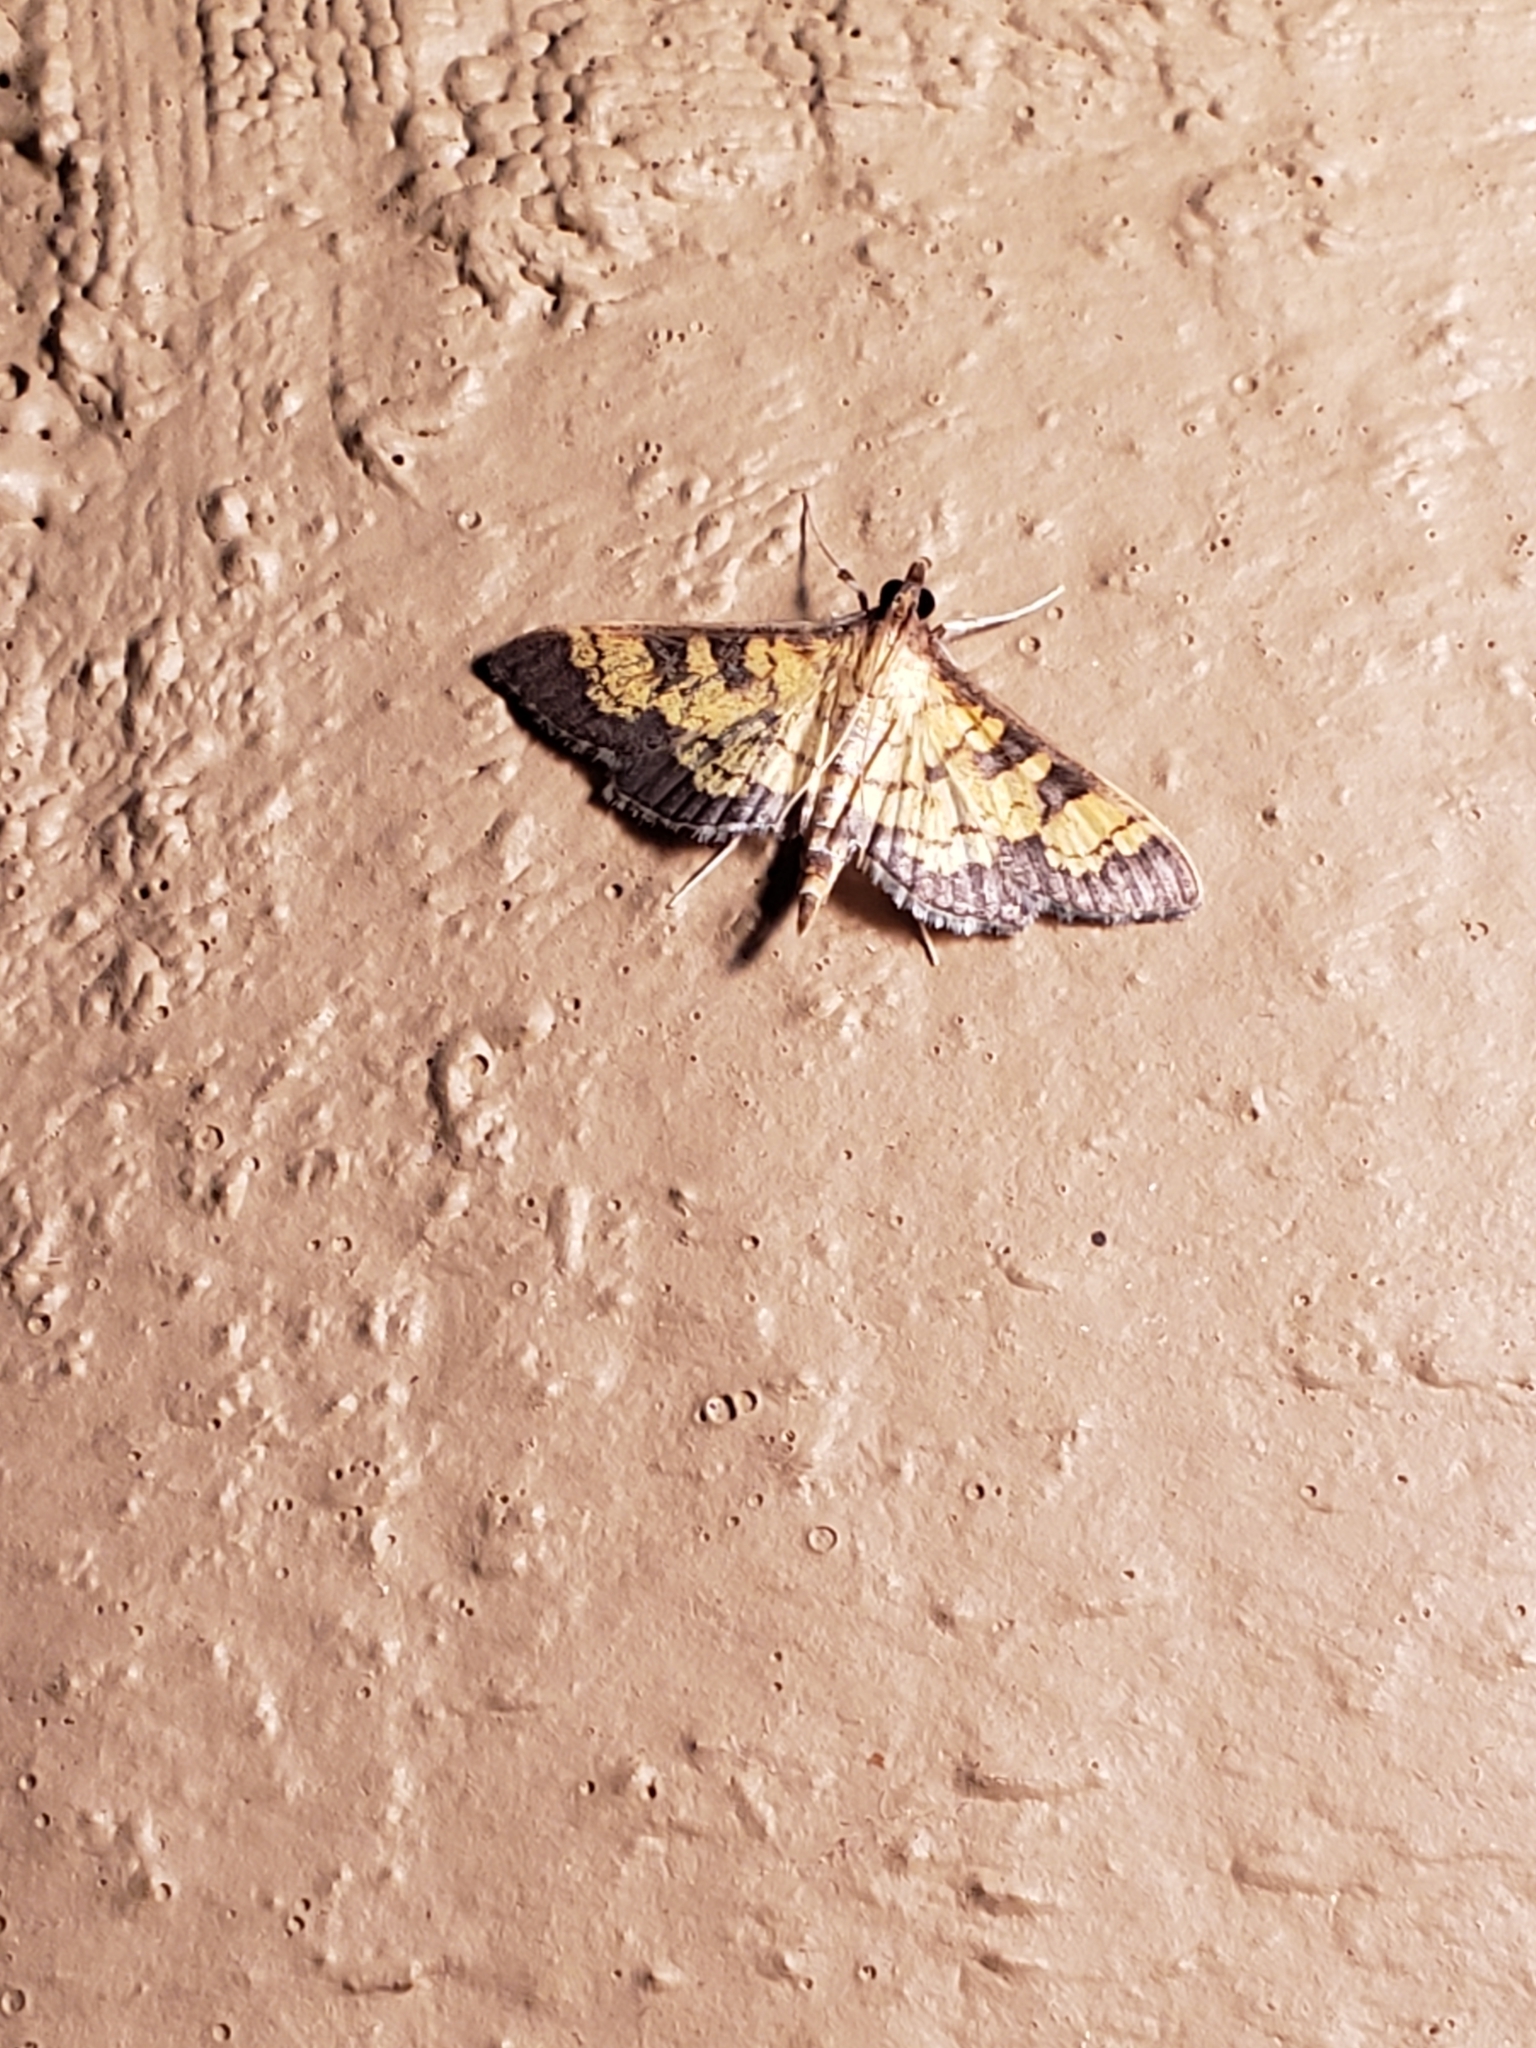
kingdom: Animalia
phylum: Arthropoda
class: Insecta
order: Lepidoptera
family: Crambidae
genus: Epipagis
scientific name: Epipagis adipaloides
